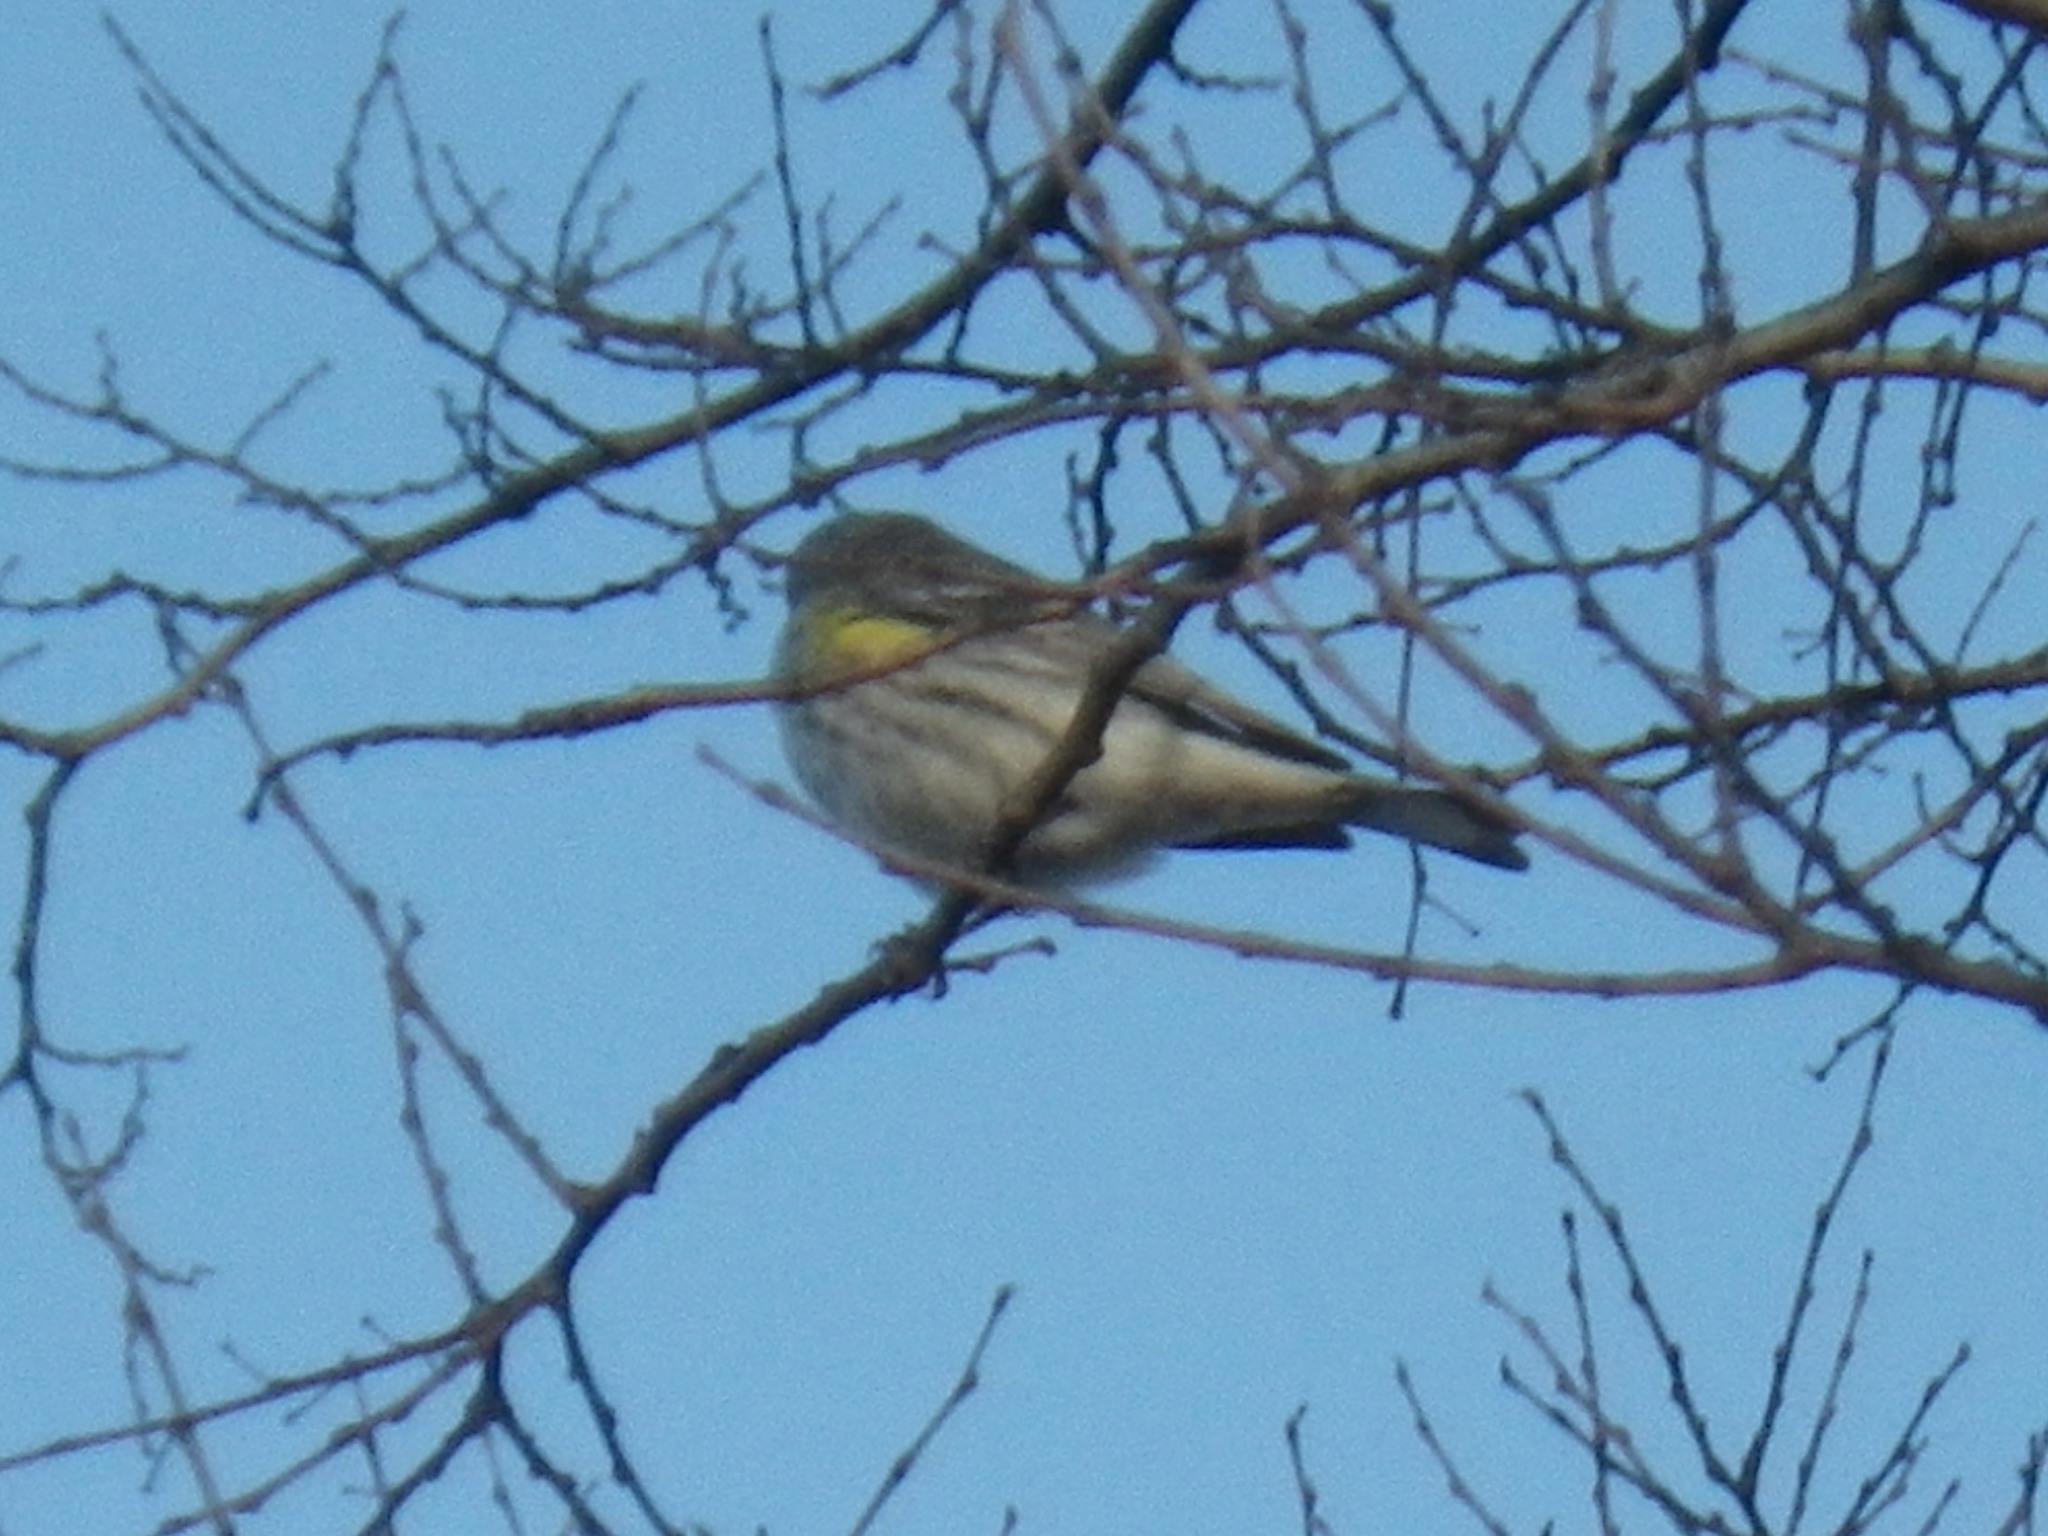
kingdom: Animalia
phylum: Chordata
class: Aves
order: Passeriformes
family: Parulidae
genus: Setophaga
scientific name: Setophaga coronata
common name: Myrtle warbler
